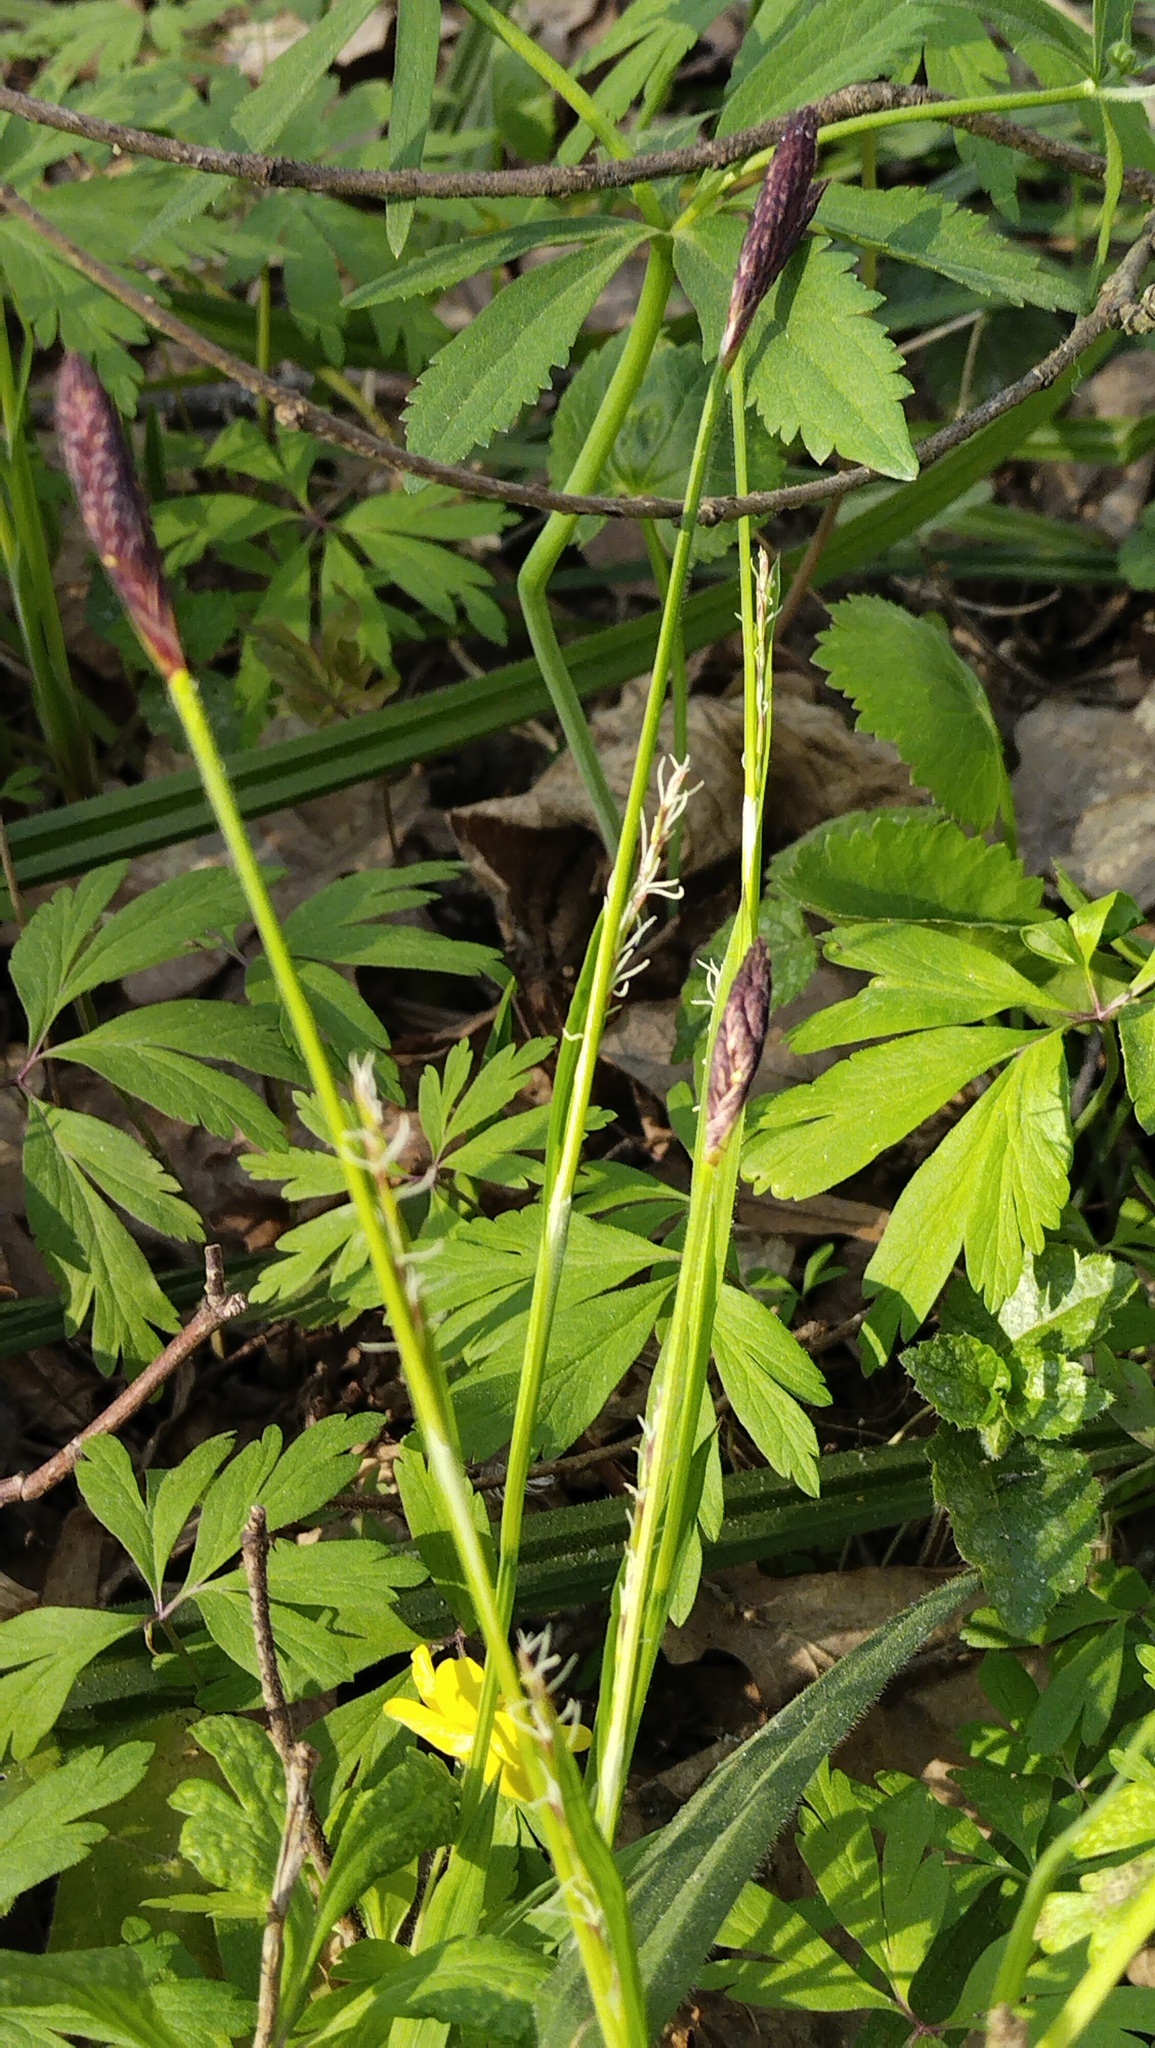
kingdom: Plantae
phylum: Tracheophyta
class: Liliopsida
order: Poales
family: Cyperaceae
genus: Carex
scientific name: Carex pilosa
